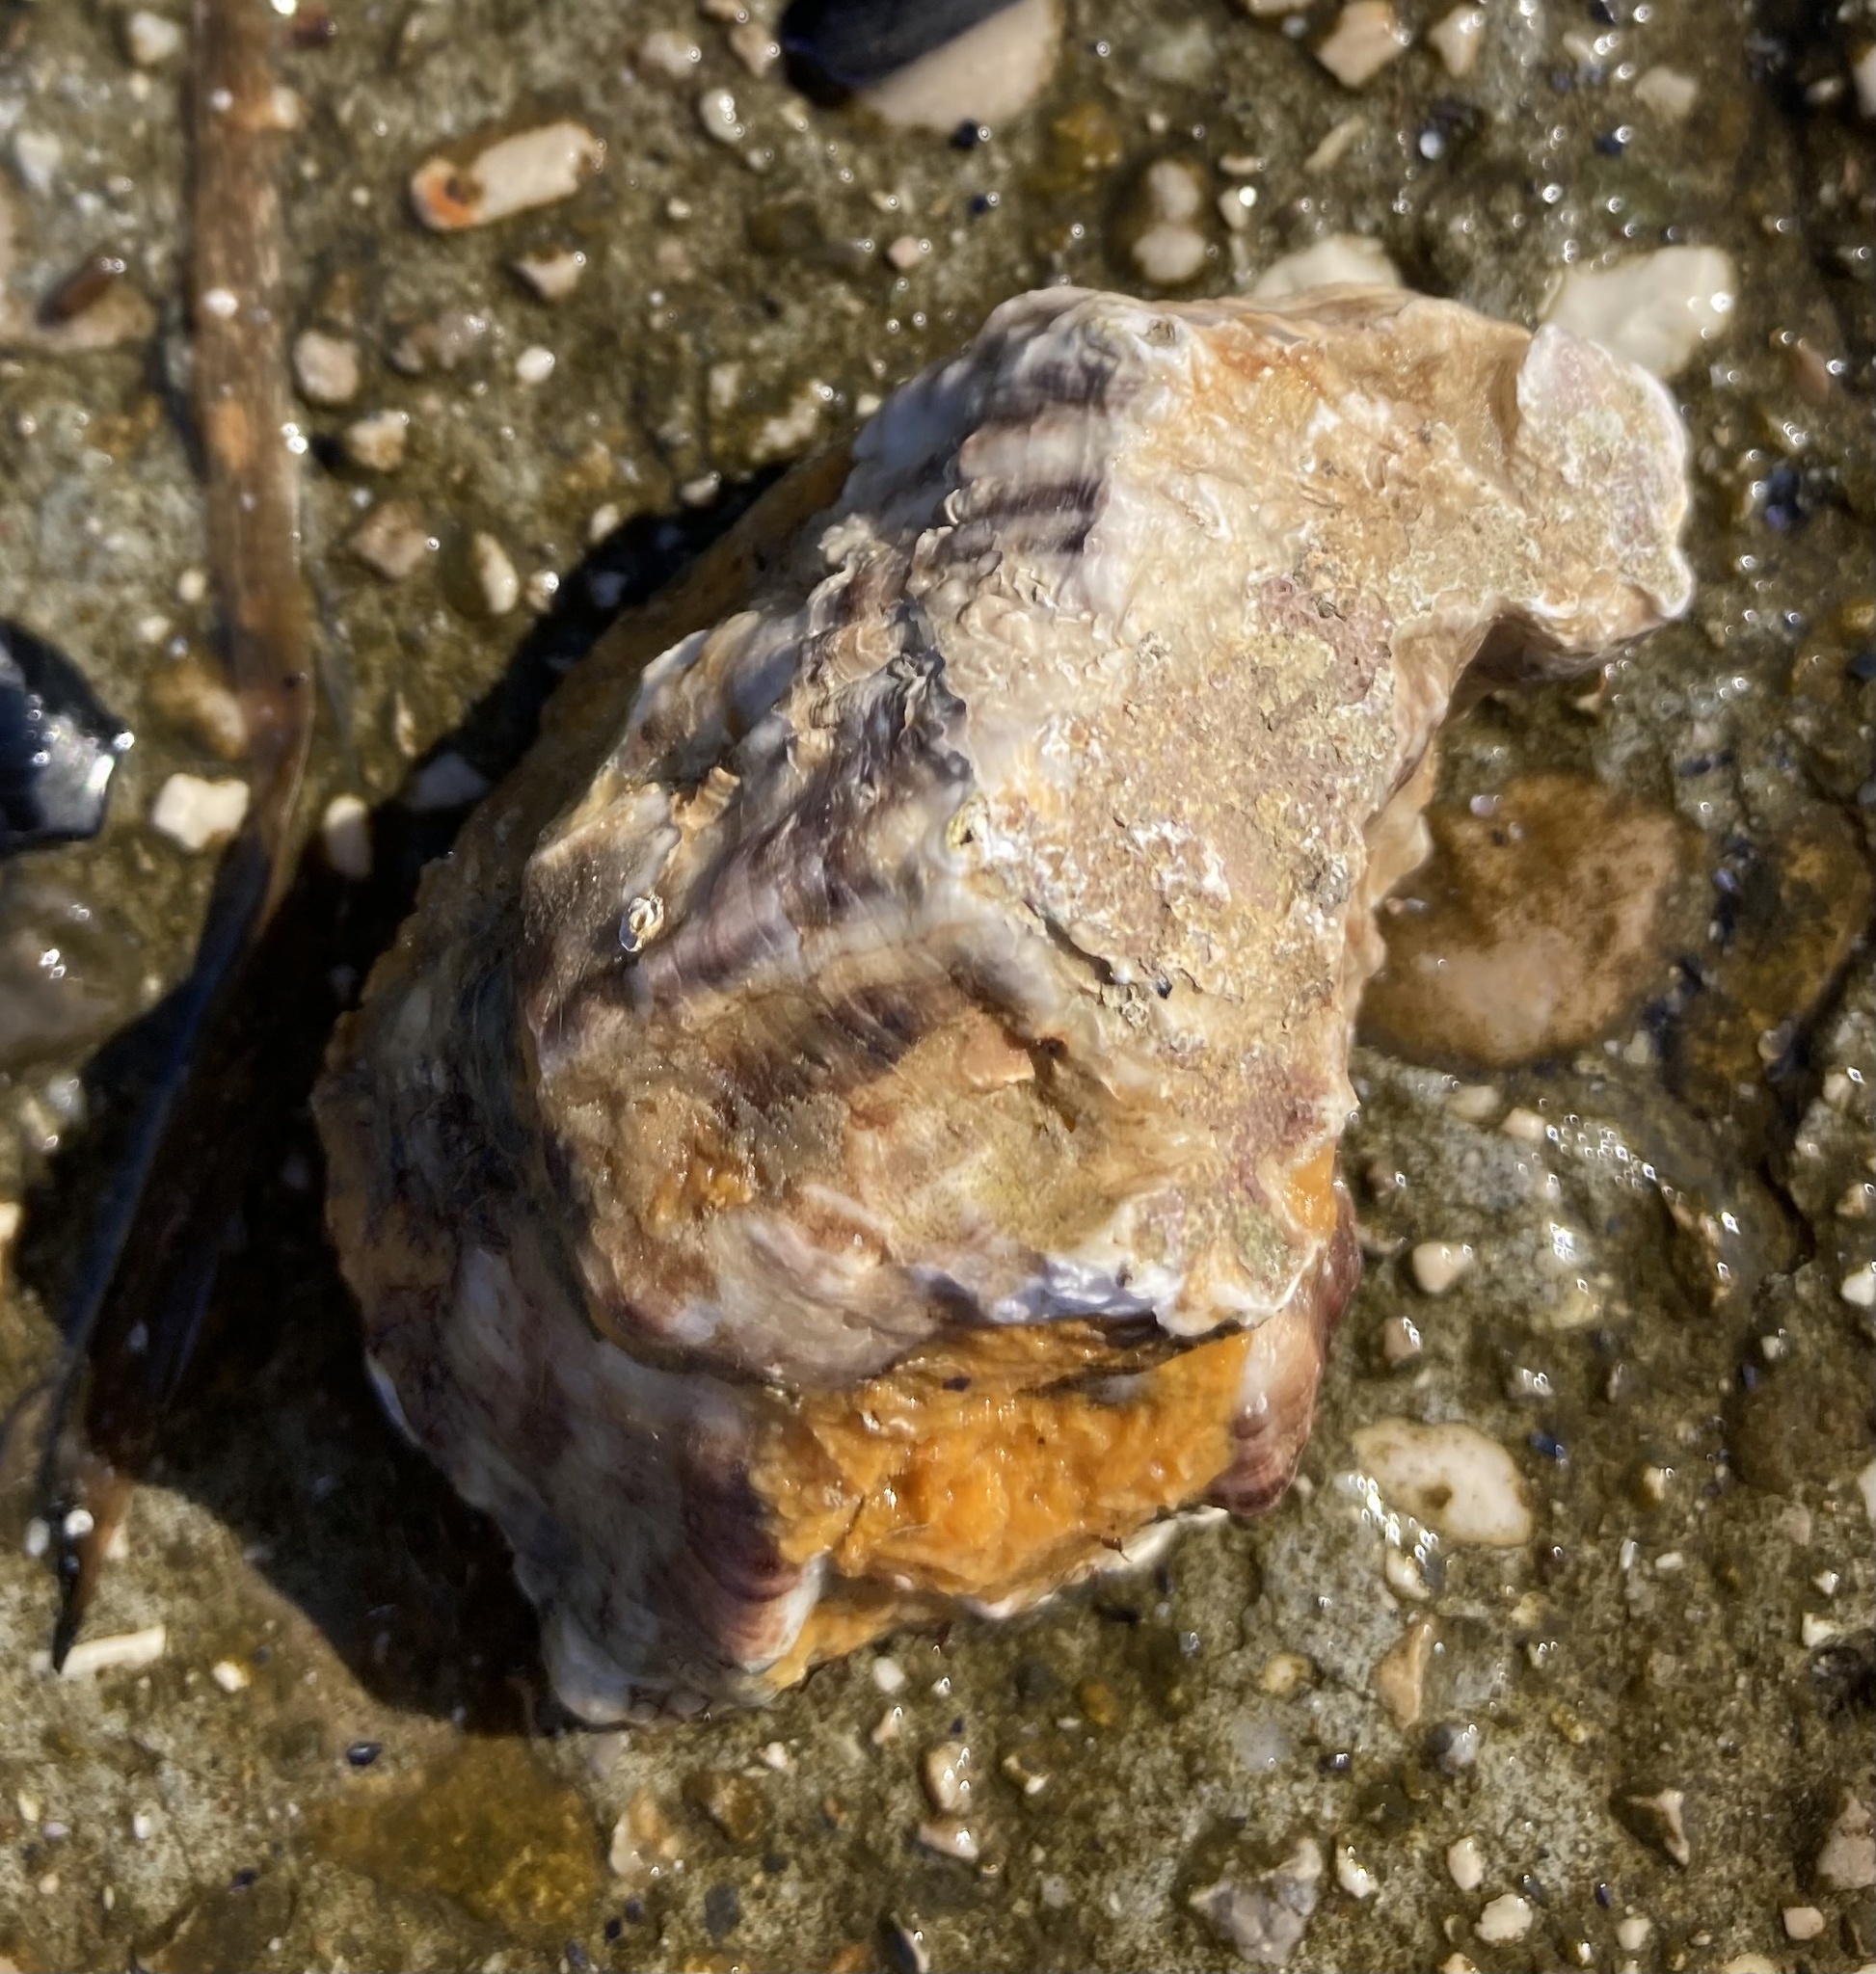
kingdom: Animalia
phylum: Mollusca
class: Bivalvia
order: Ostreida
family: Ostreidae
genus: Magallana
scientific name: Magallana gigas
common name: Pacific oyster
